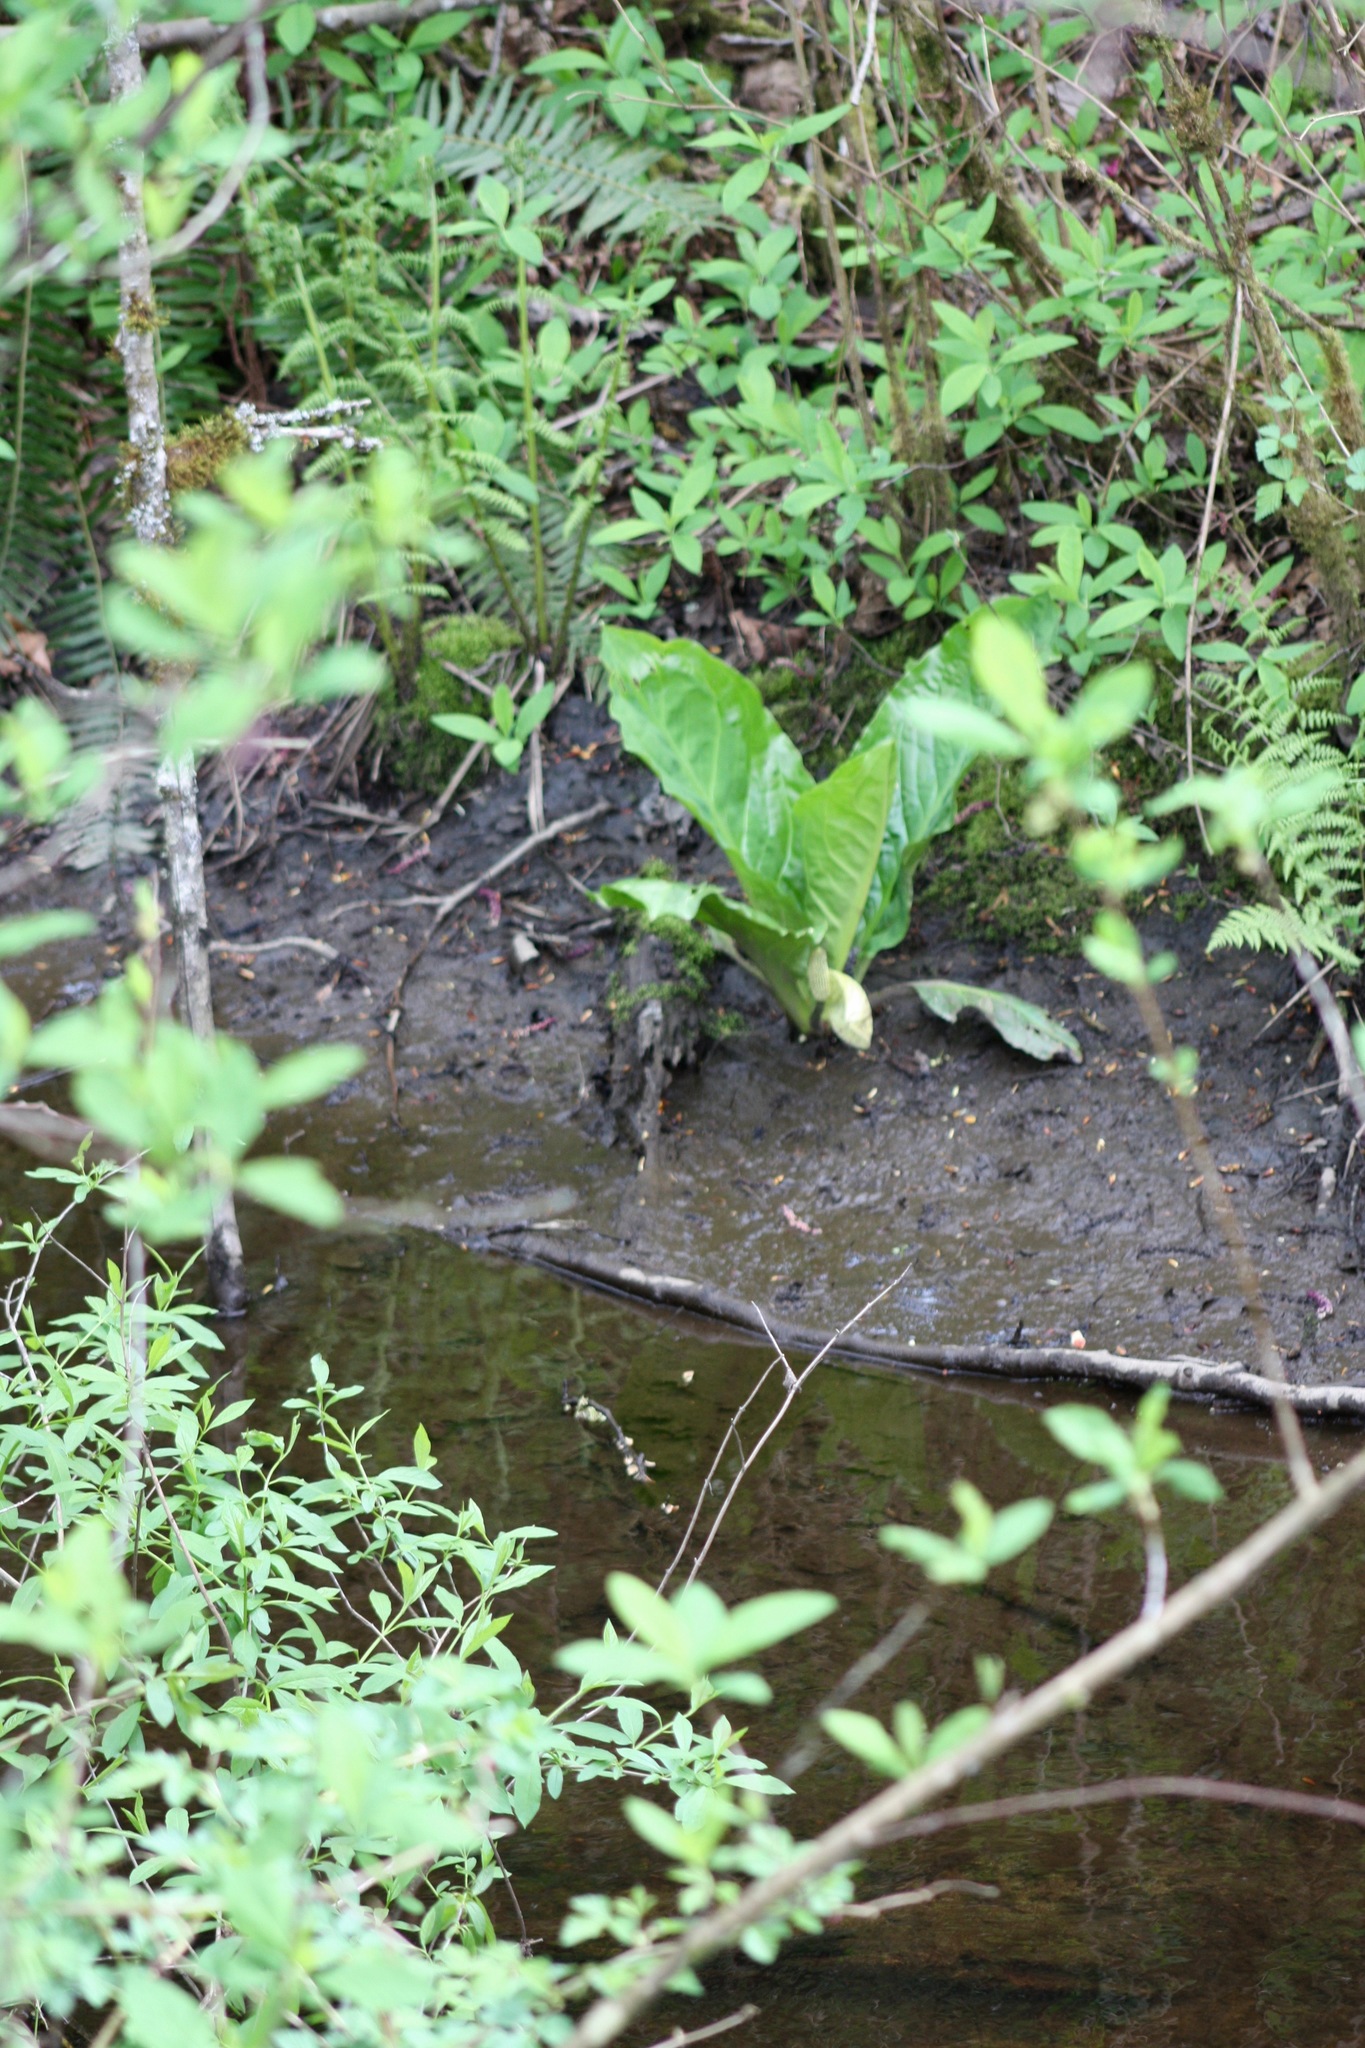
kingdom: Plantae
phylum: Tracheophyta
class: Liliopsida
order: Alismatales
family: Araceae
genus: Lysichiton
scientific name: Lysichiton americanus
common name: American skunk cabbage
